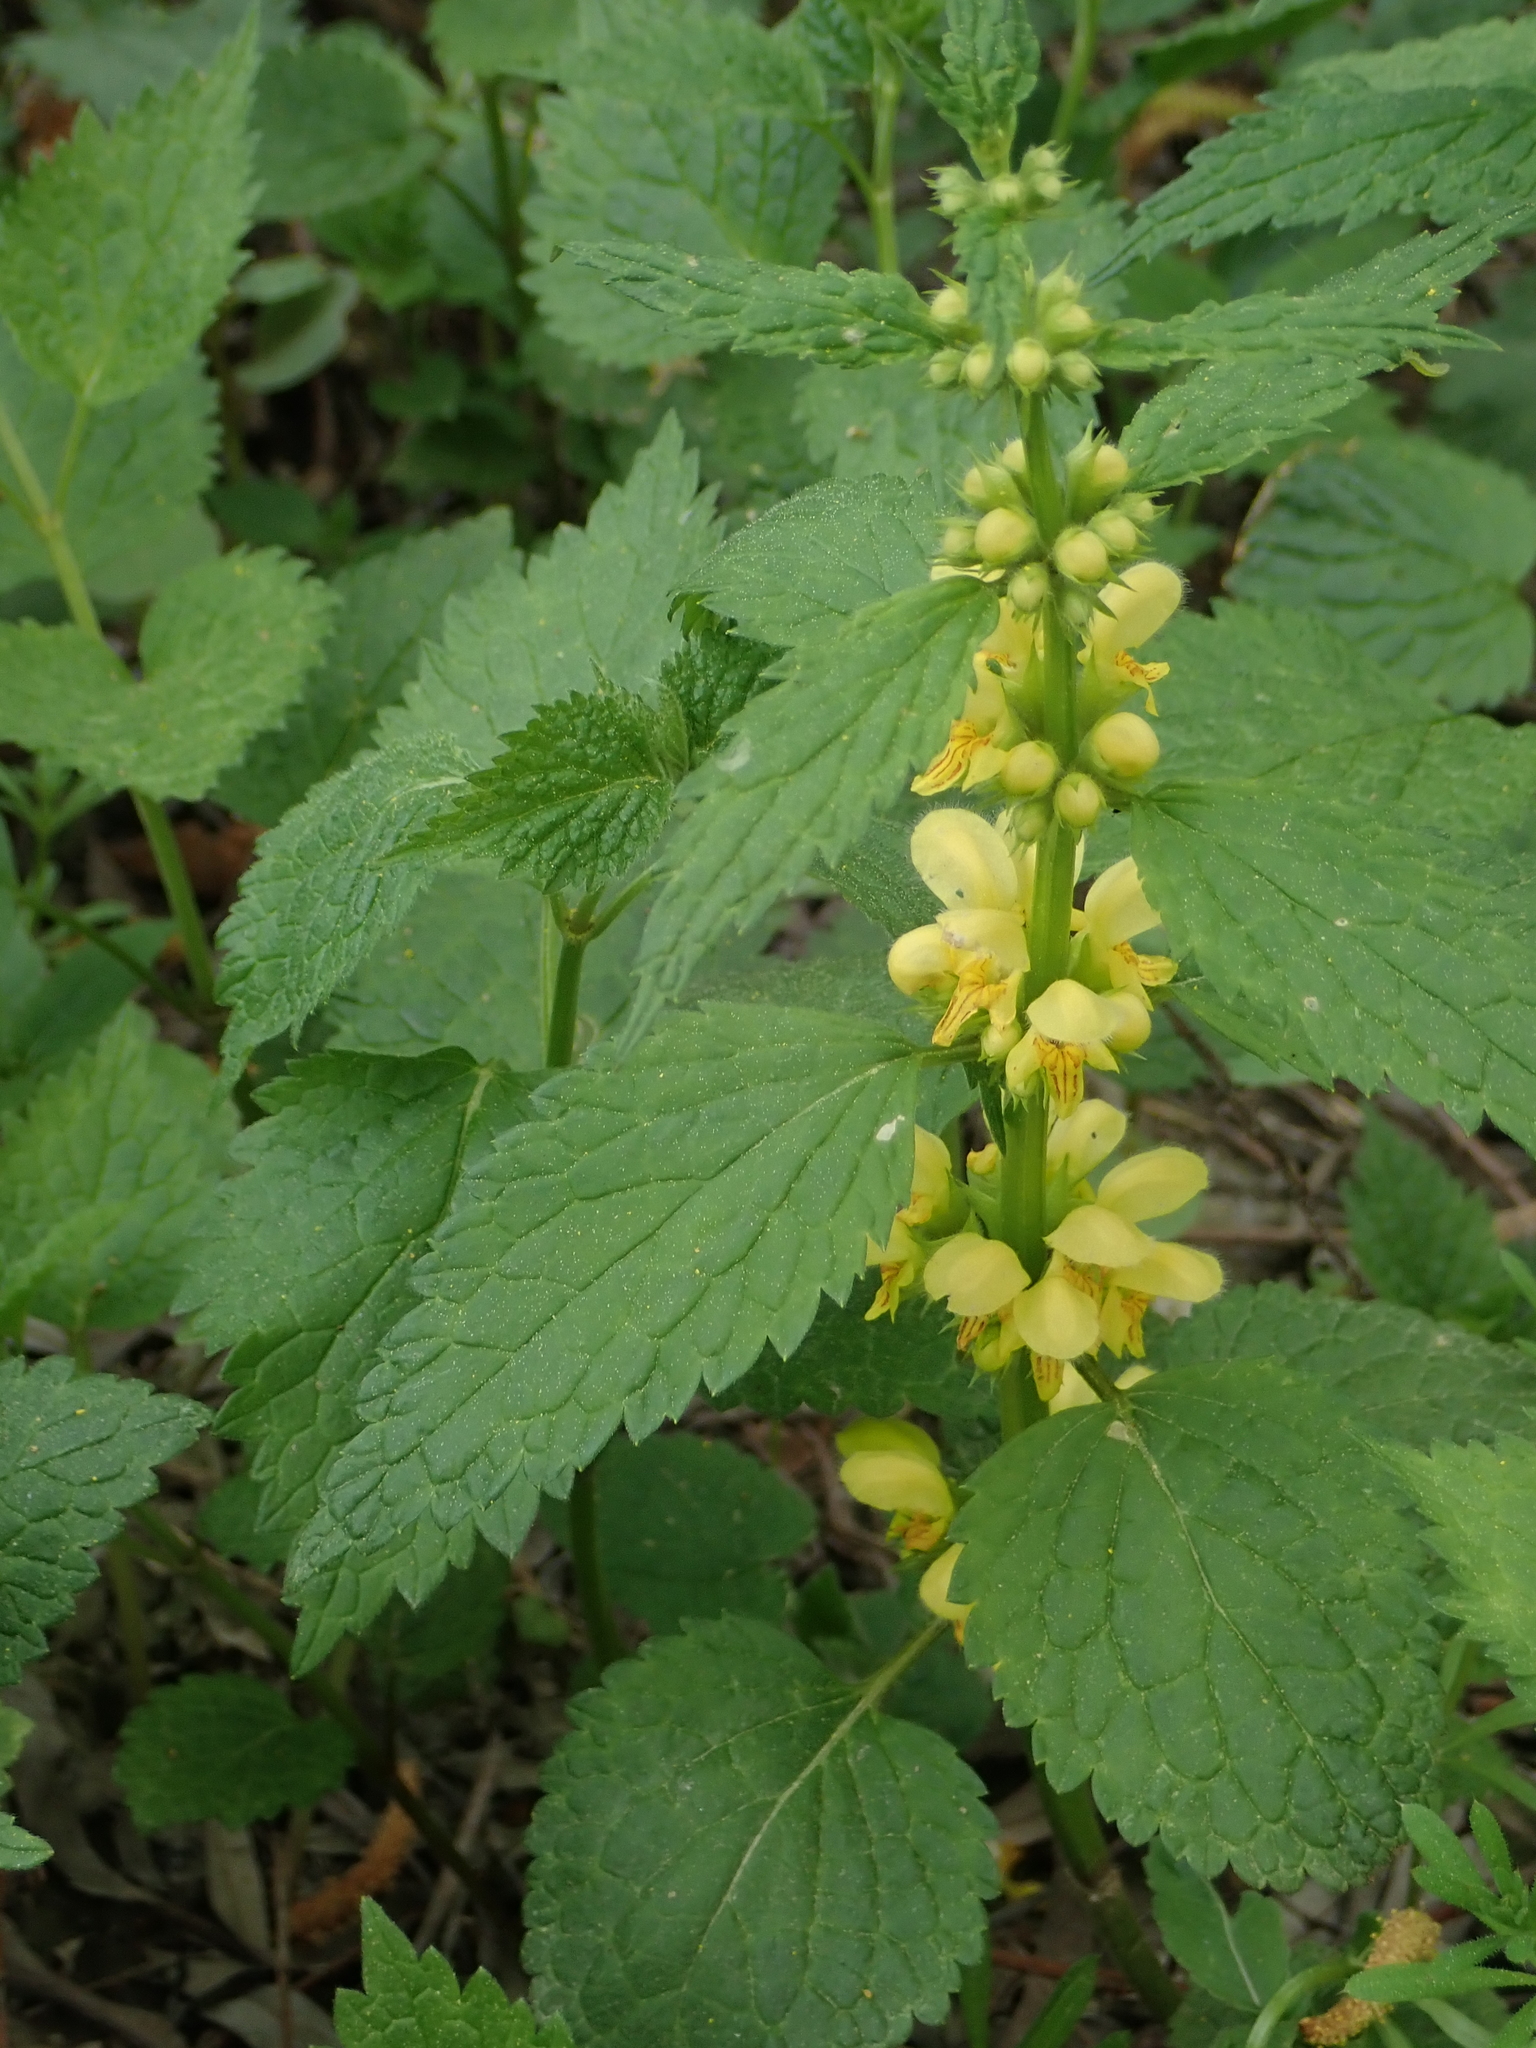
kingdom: Plantae
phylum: Tracheophyta
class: Magnoliopsida
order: Lamiales
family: Lamiaceae
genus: Lamium
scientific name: Lamium galeobdolon
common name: Yellow archangel
